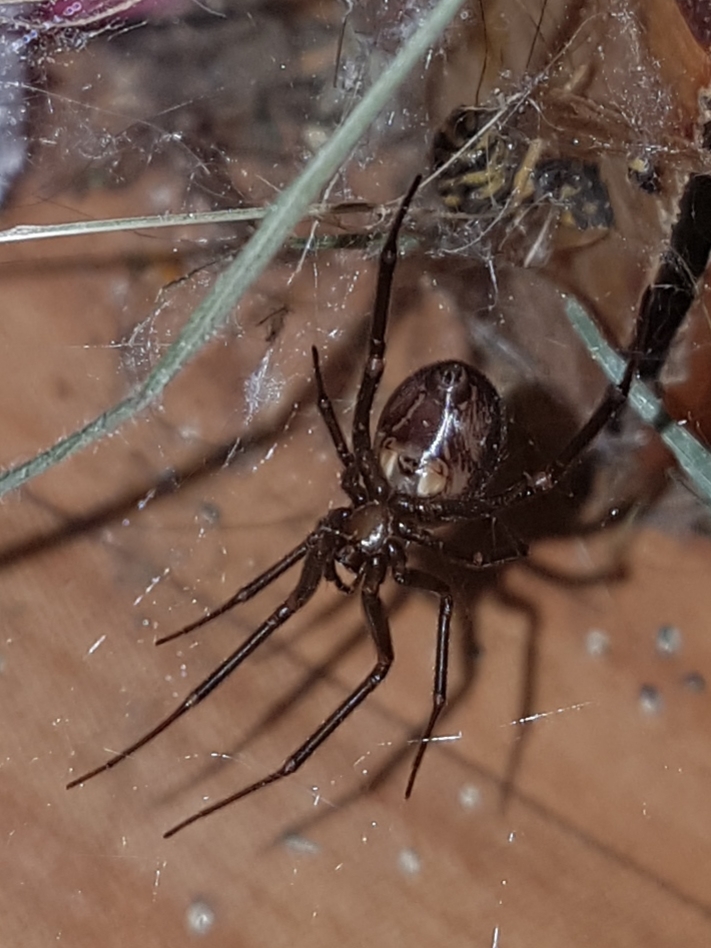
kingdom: Animalia
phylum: Arthropoda
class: Arachnida
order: Araneae
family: Theridiidae
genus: Steatoda
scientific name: Steatoda grossa
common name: False black widow
